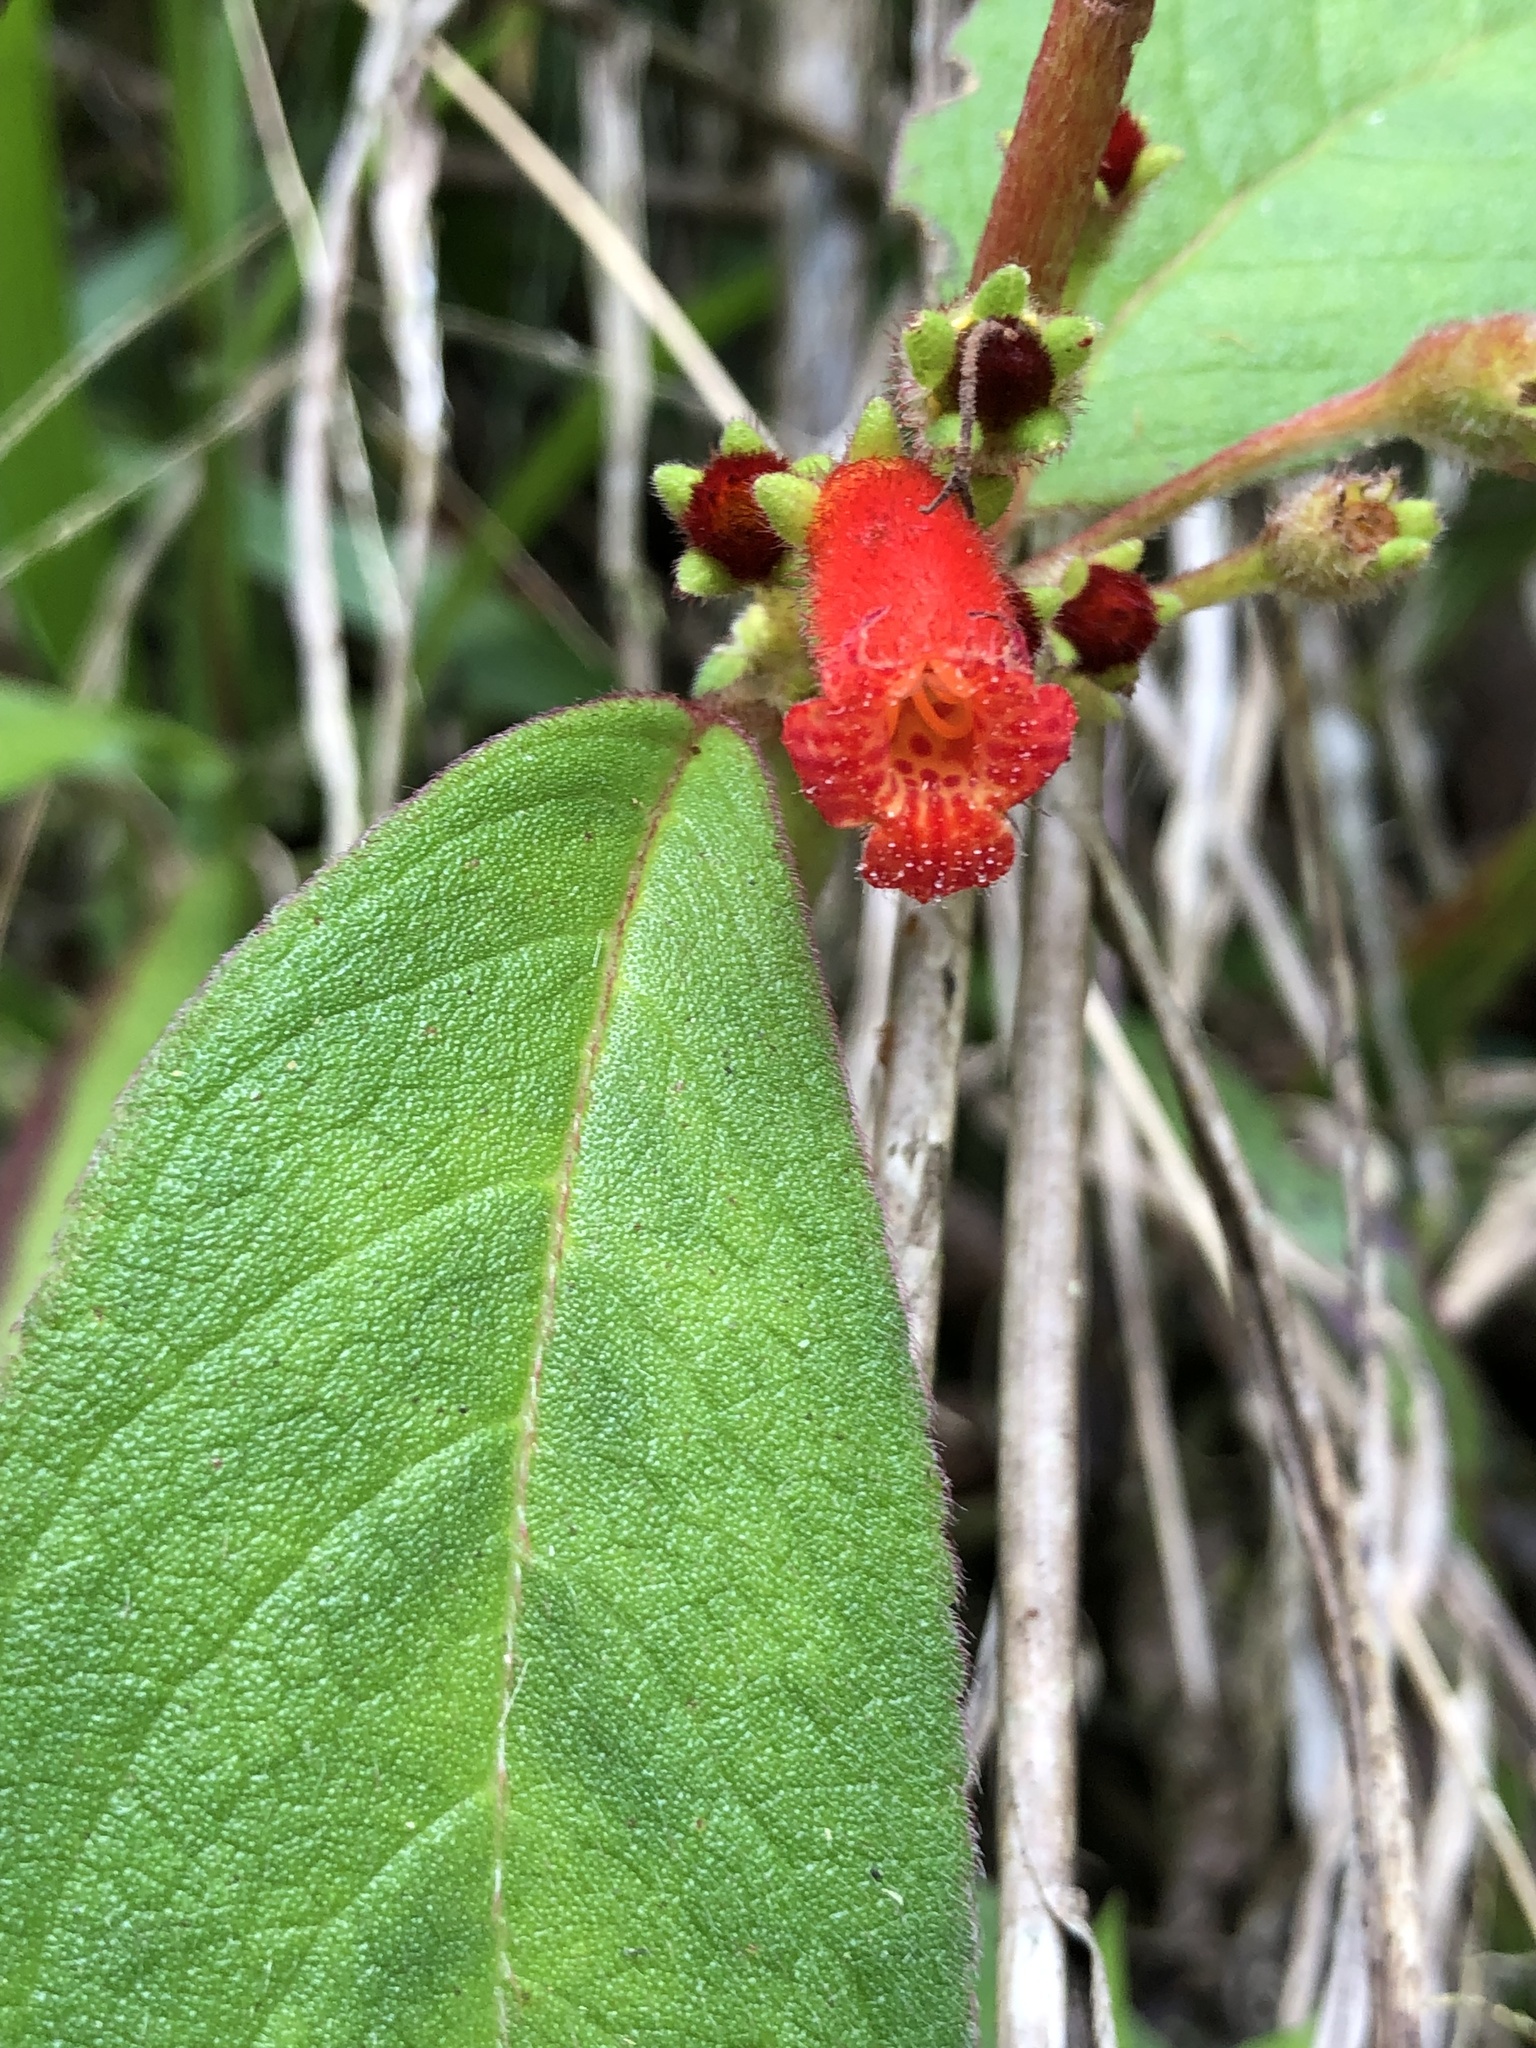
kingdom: Plantae
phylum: Tracheophyta
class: Magnoliopsida
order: Lamiales
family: Gesneriaceae
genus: Kohleria
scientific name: Kohleria spicata
